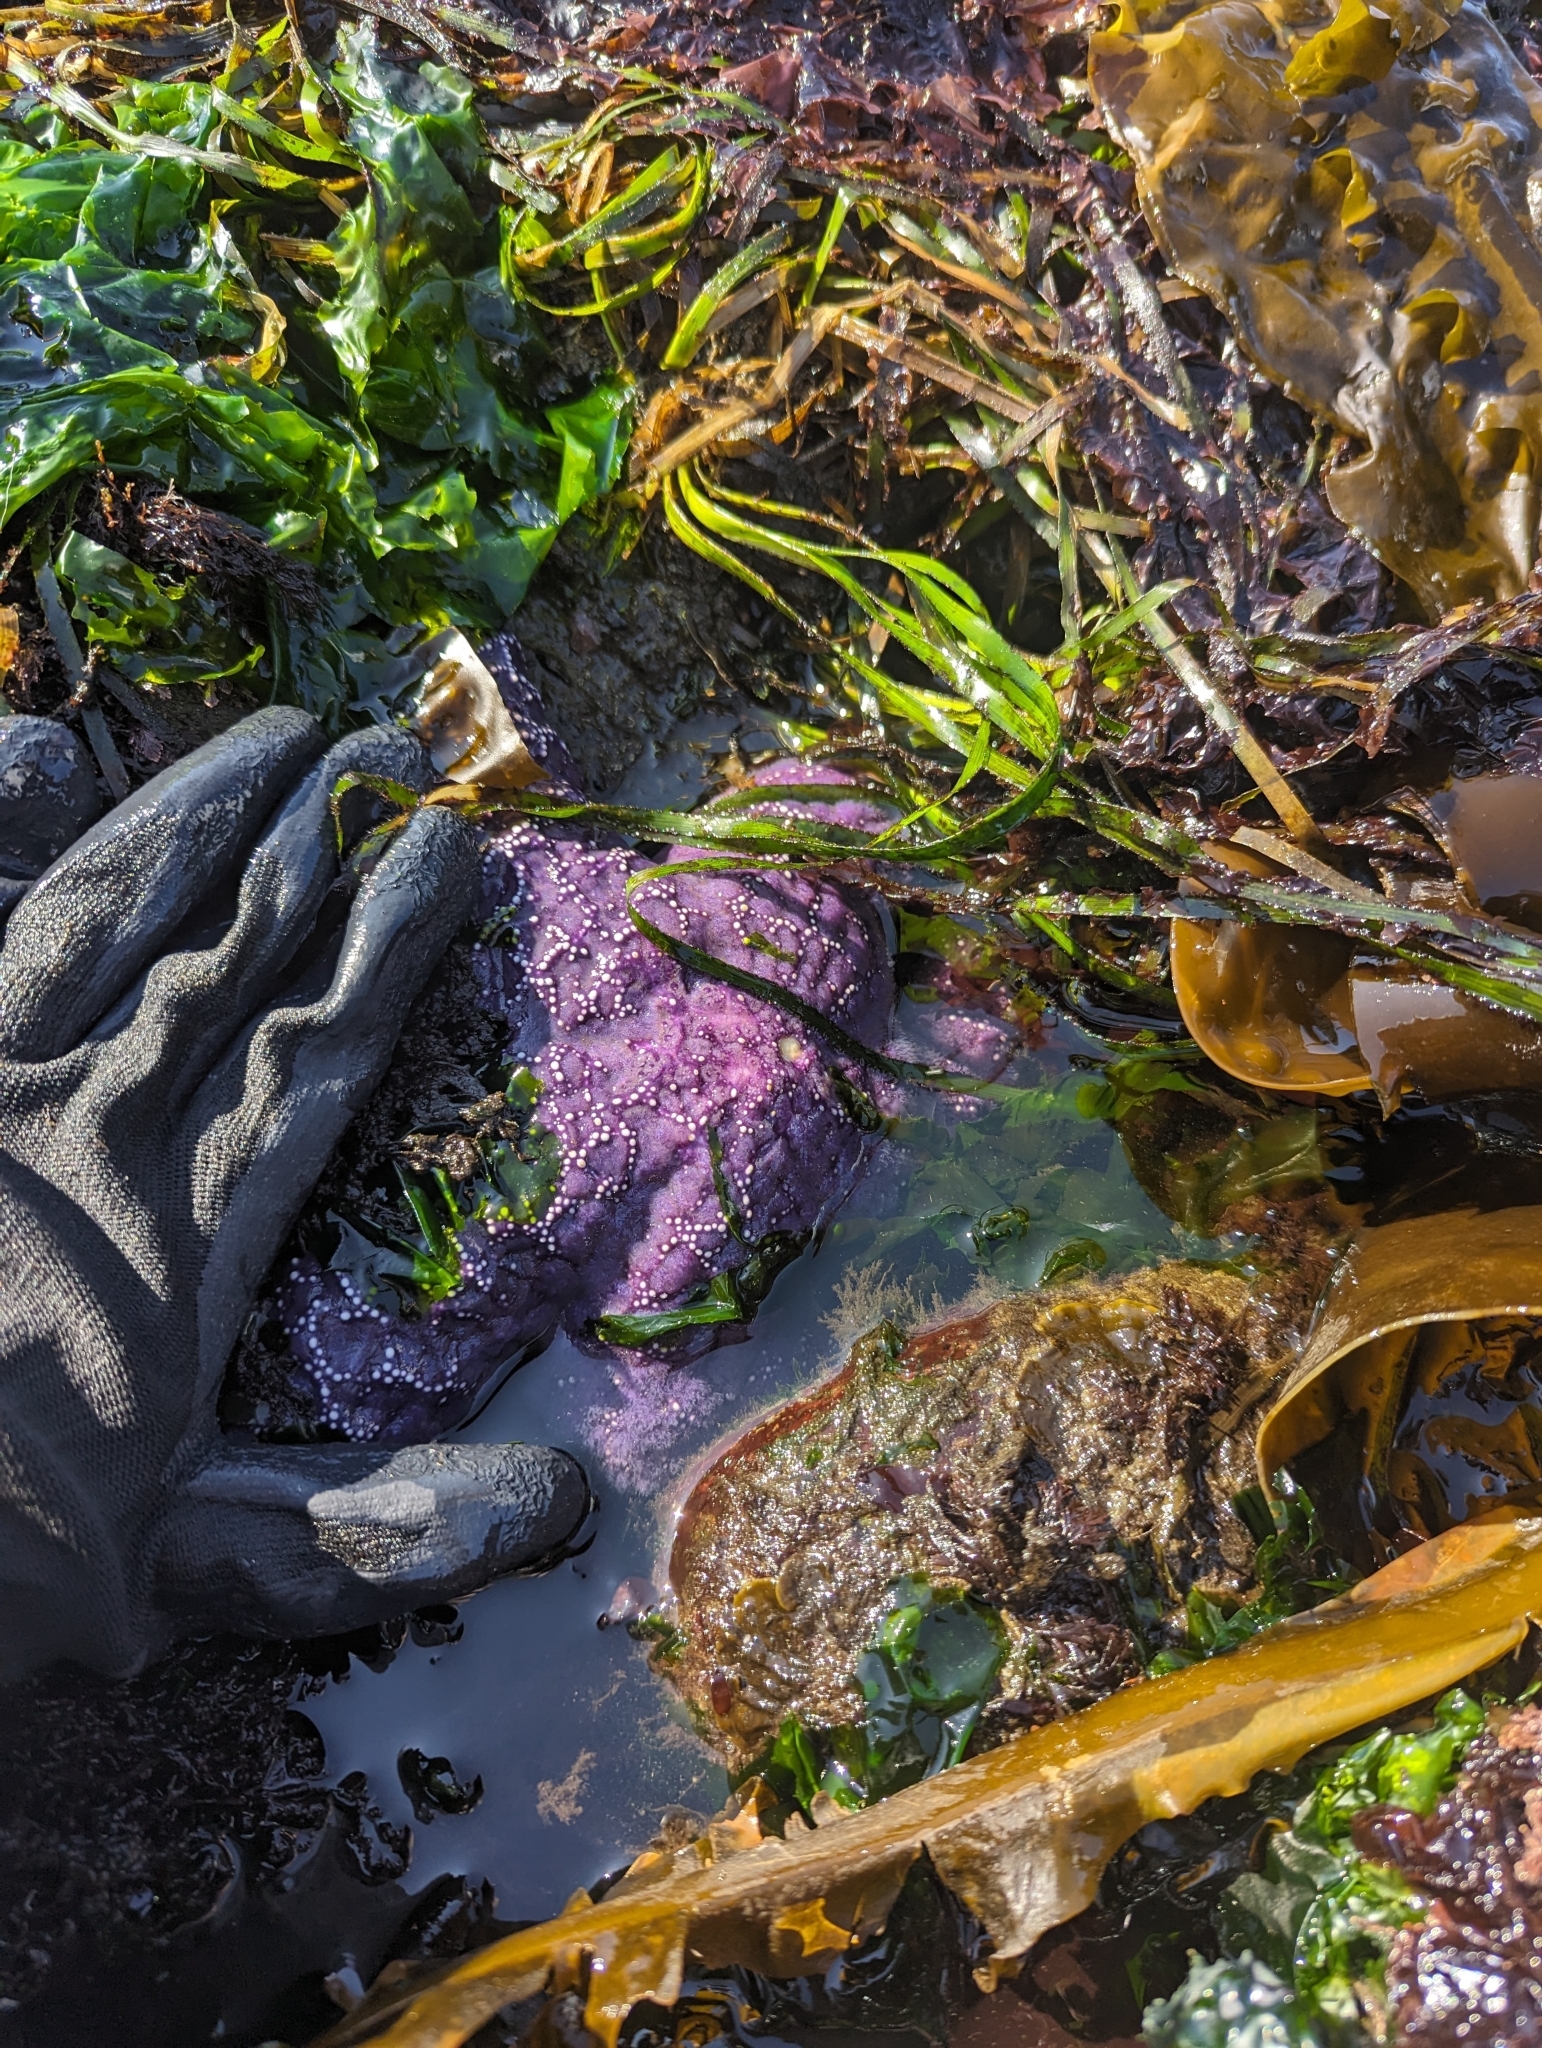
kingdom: Animalia
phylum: Echinodermata
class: Asteroidea
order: Forcipulatida
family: Asteriidae
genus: Pisaster
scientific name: Pisaster ochraceus
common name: Ochre stars
